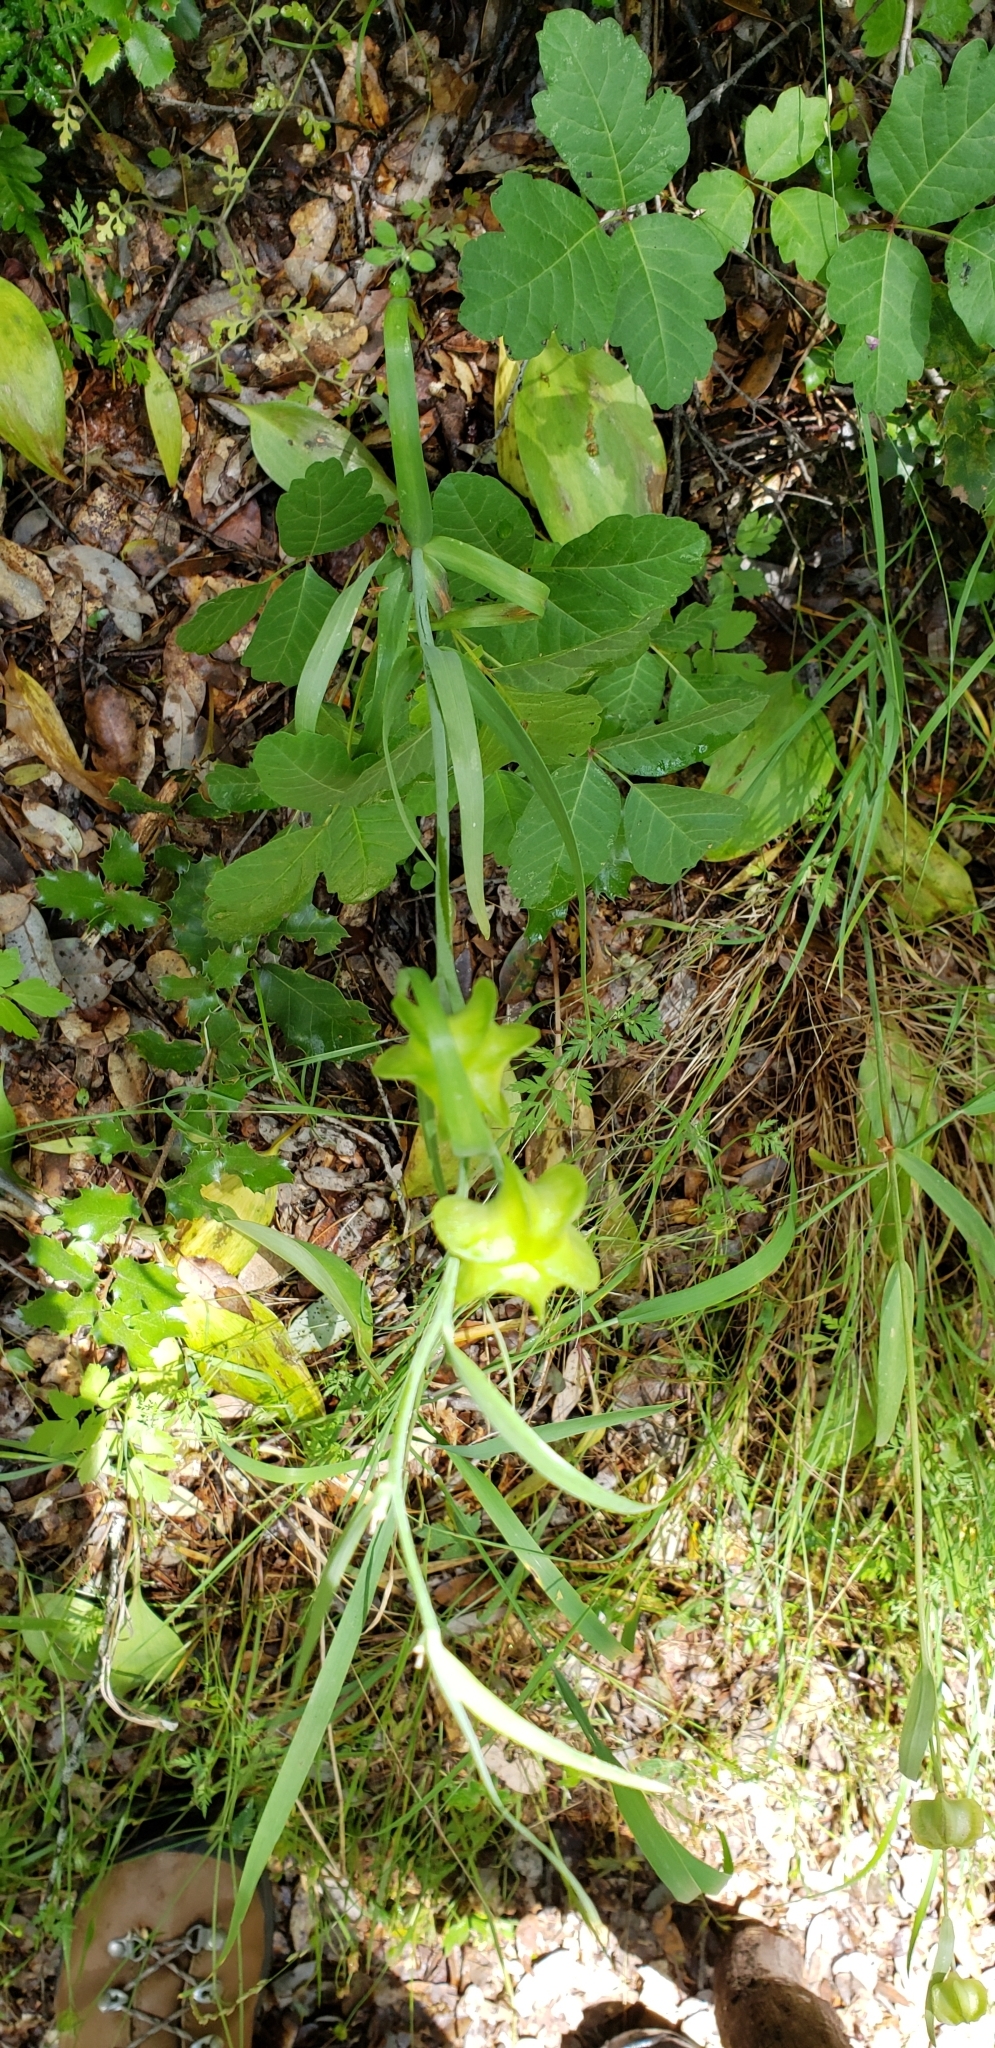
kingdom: Plantae
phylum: Tracheophyta
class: Liliopsida
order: Liliales
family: Liliaceae
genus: Fritillaria
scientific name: Fritillaria micrantha
